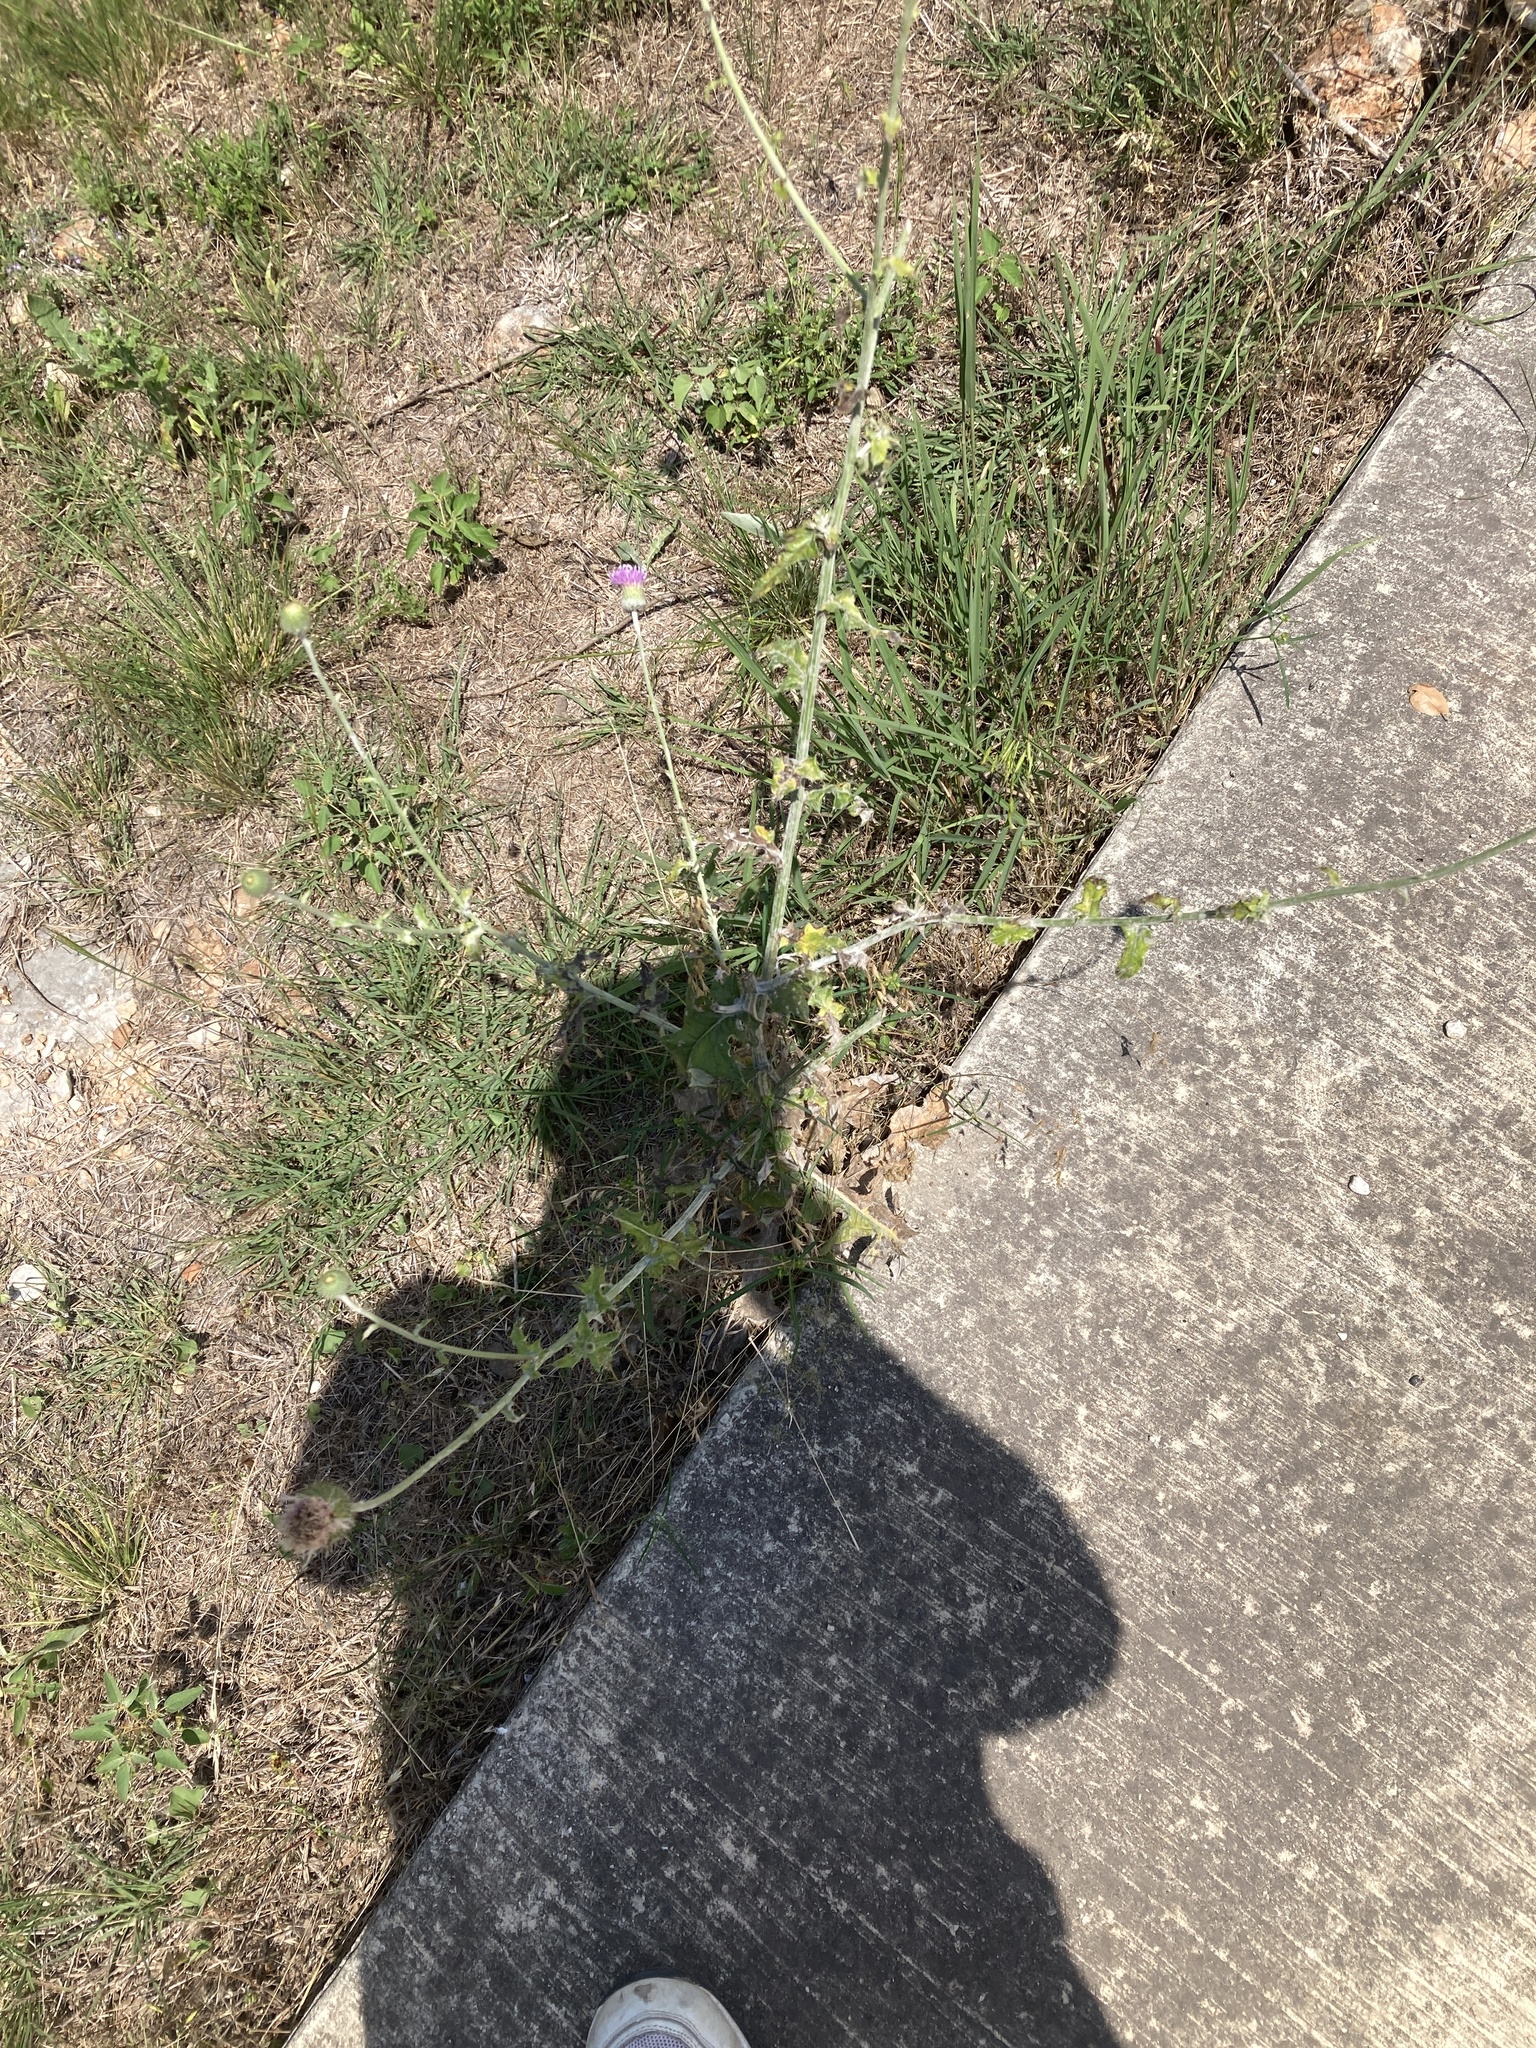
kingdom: Plantae
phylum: Tracheophyta
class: Magnoliopsida
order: Asterales
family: Asteraceae
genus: Cirsium
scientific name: Cirsium texanum
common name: Texas purple thistle
